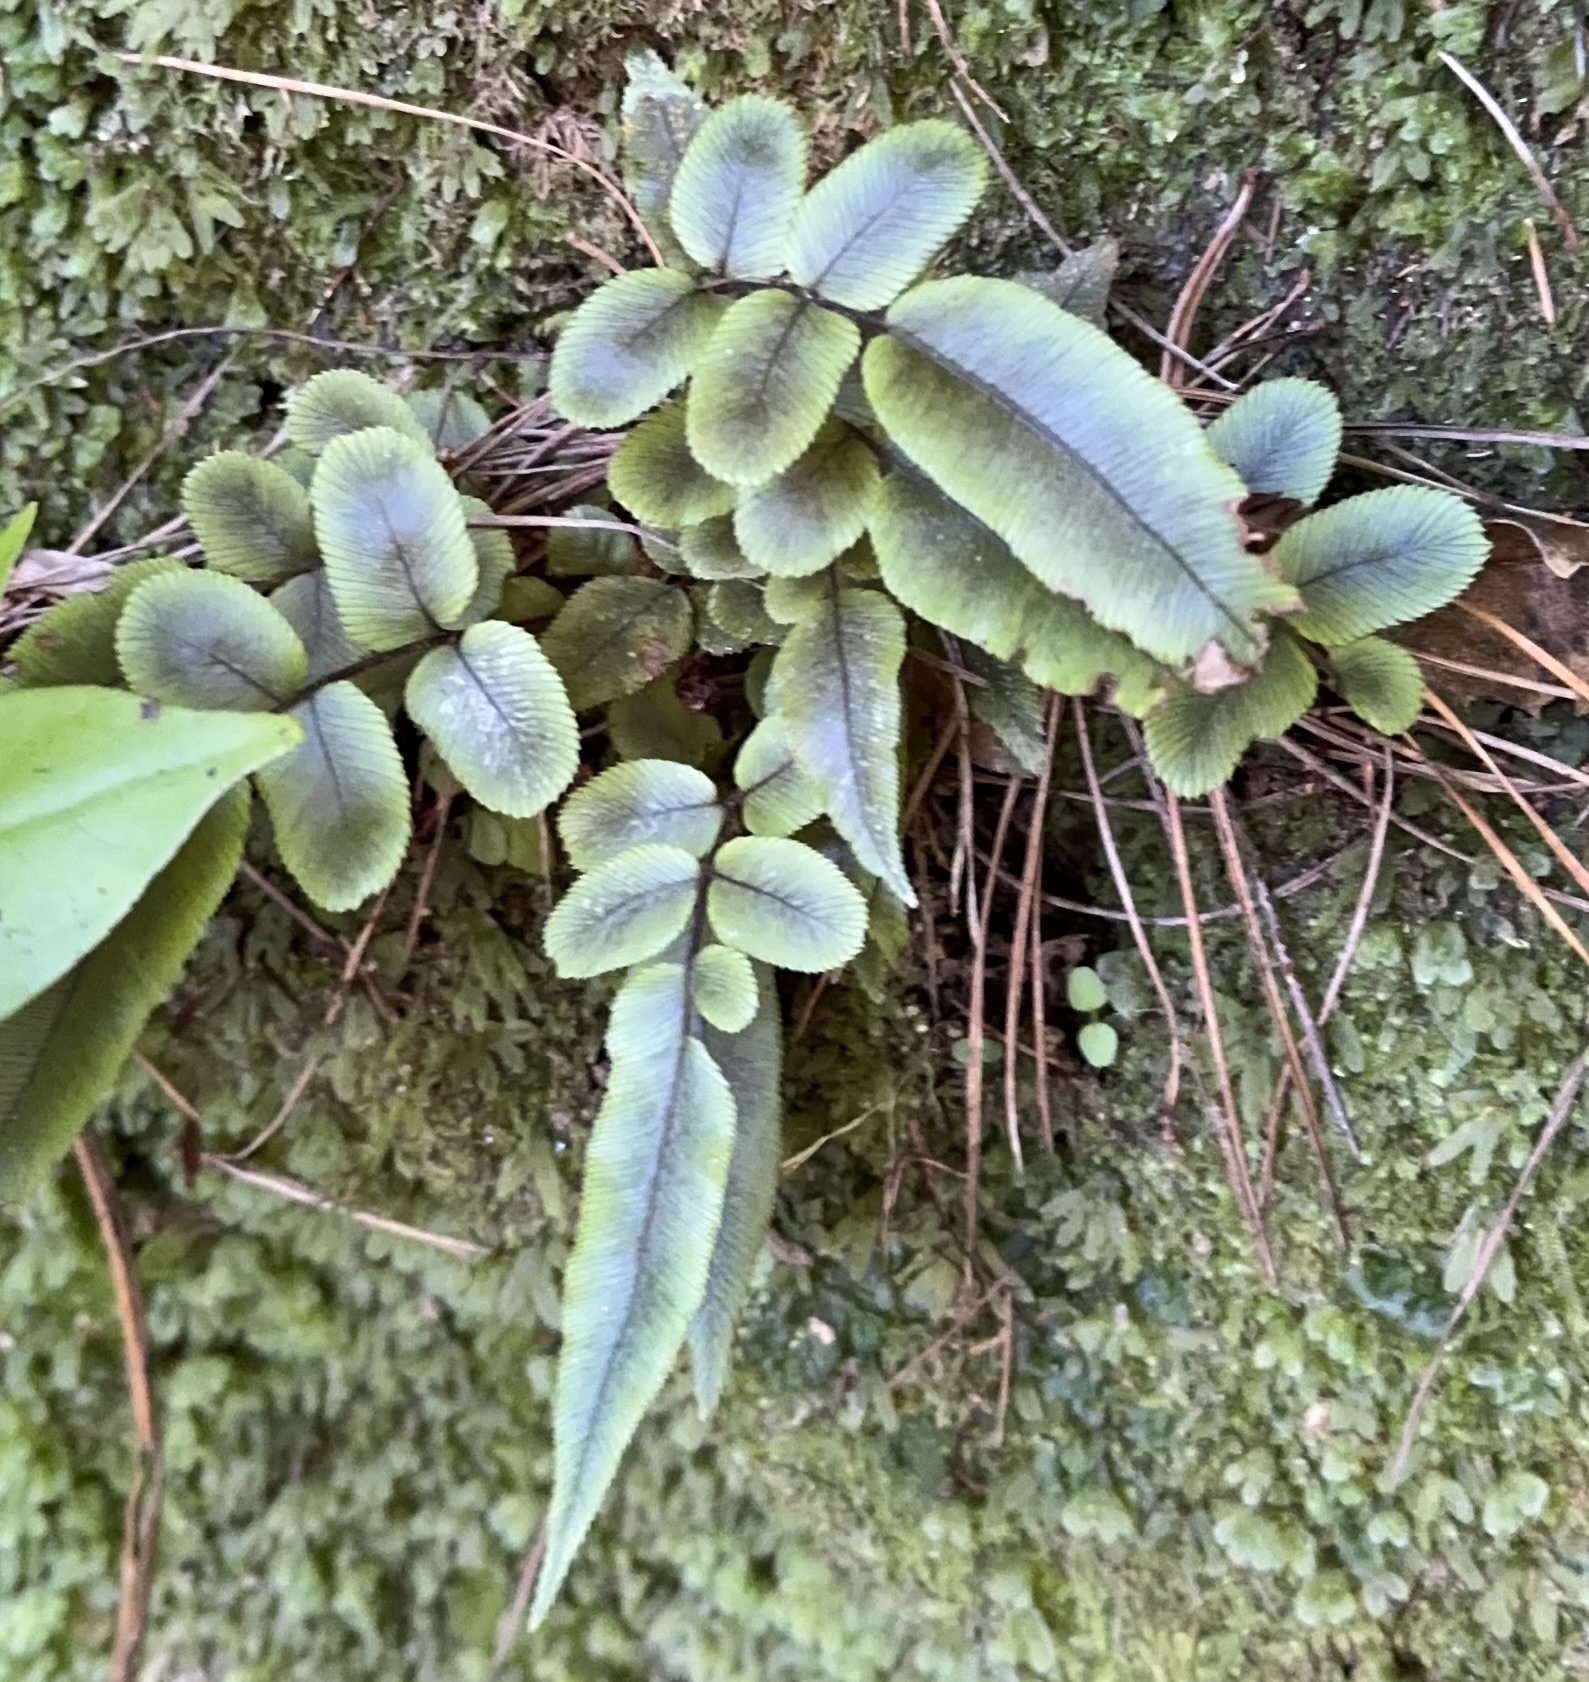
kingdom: Plantae
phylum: Tracheophyta
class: Polypodiopsida
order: Polypodiales
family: Blechnaceae
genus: Parablechnum
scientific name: Parablechnum procerum
